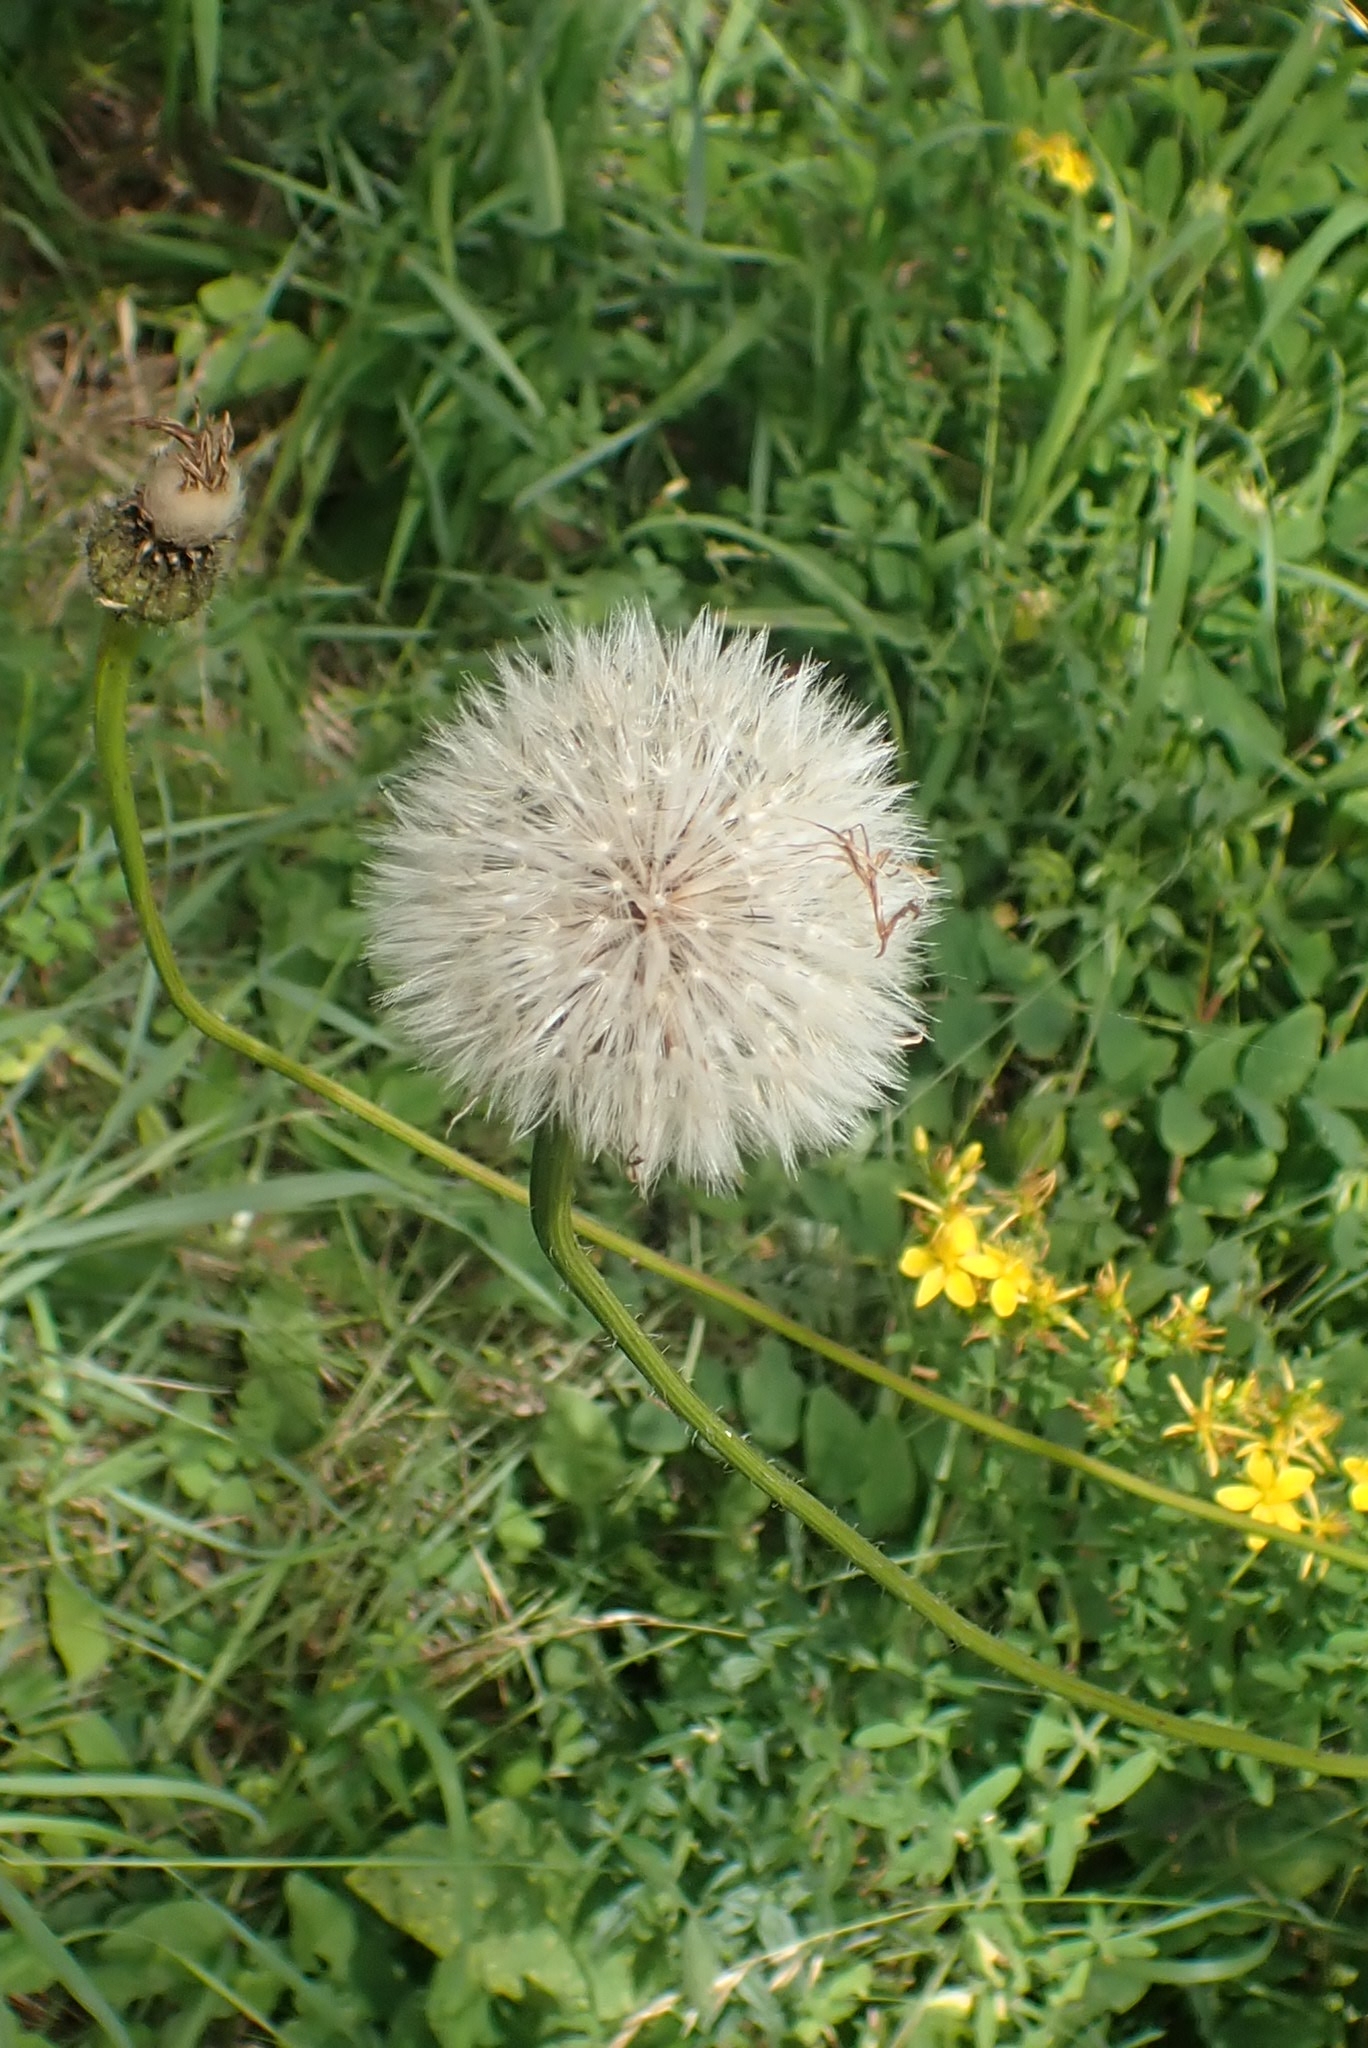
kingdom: Plantae
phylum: Tracheophyta
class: Magnoliopsida
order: Asterales
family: Asteraceae
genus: Trommsdorffia
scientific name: Trommsdorffia maculata
